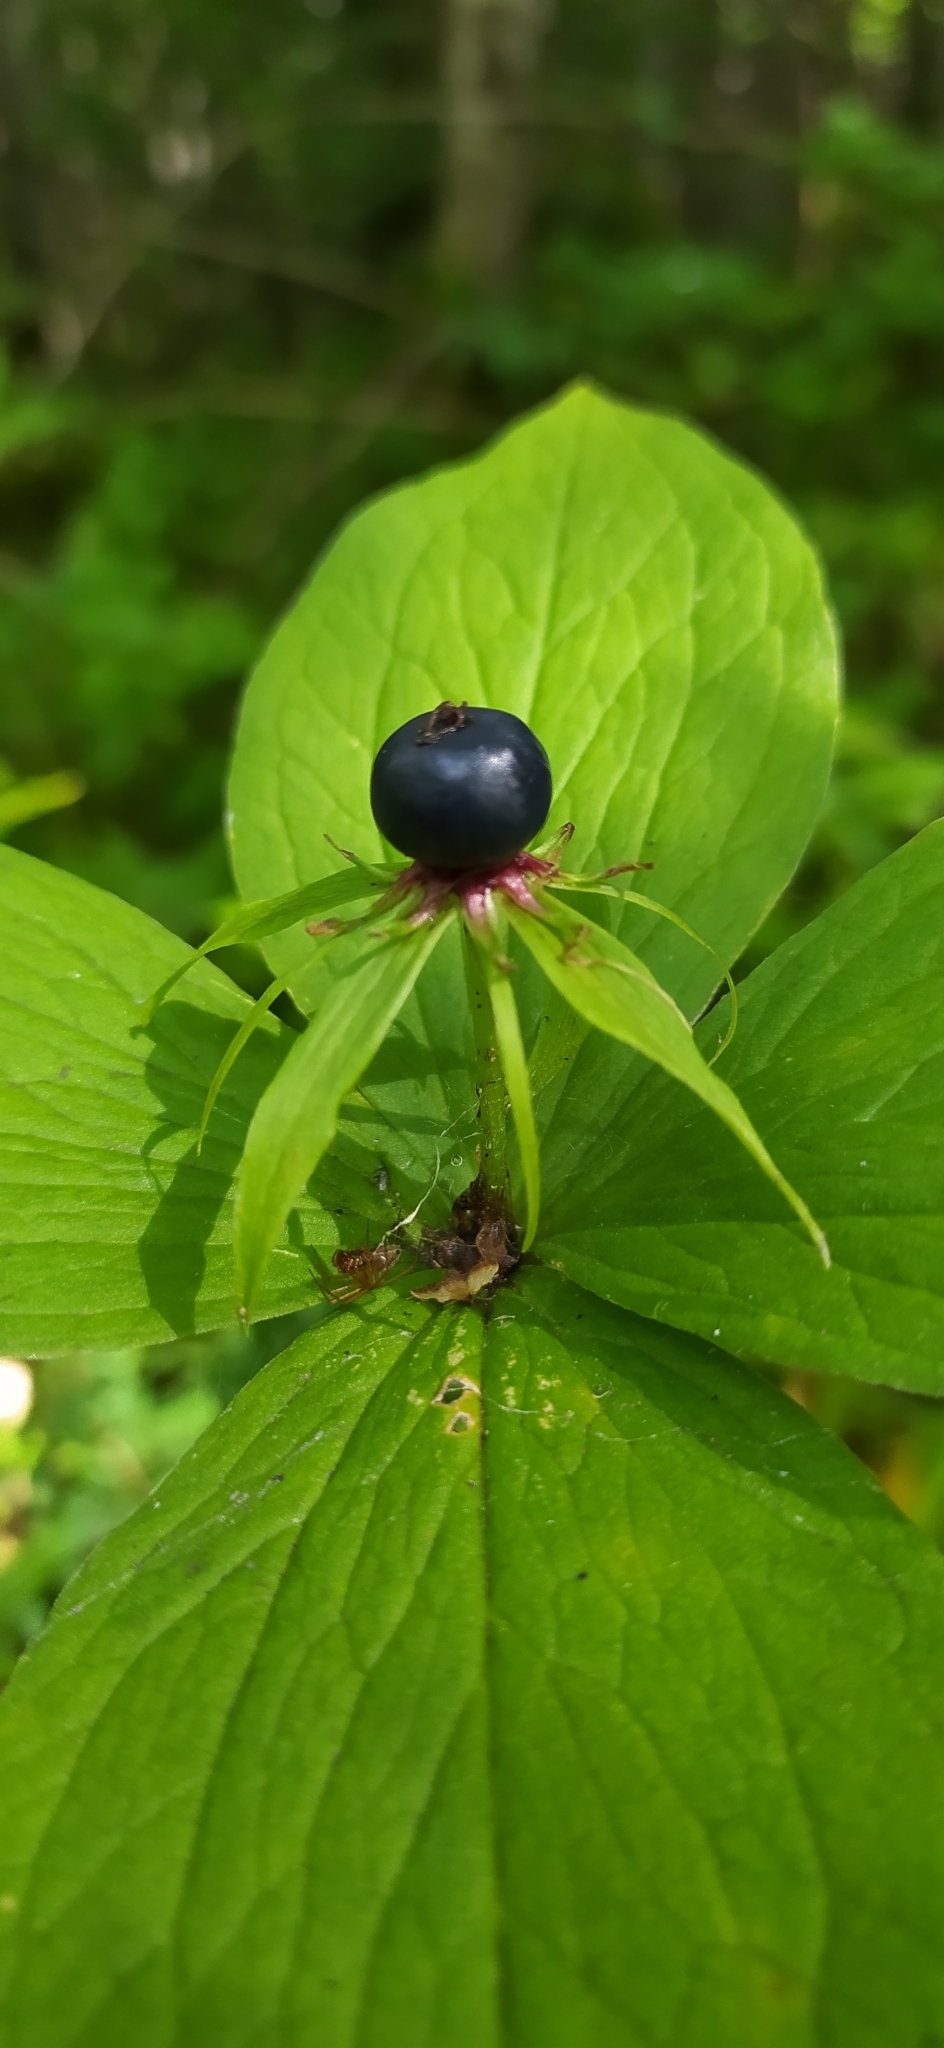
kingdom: Plantae
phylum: Tracheophyta
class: Liliopsida
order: Liliales
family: Melanthiaceae
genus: Paris
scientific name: Paris quadrifolia
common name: Herb-paris
